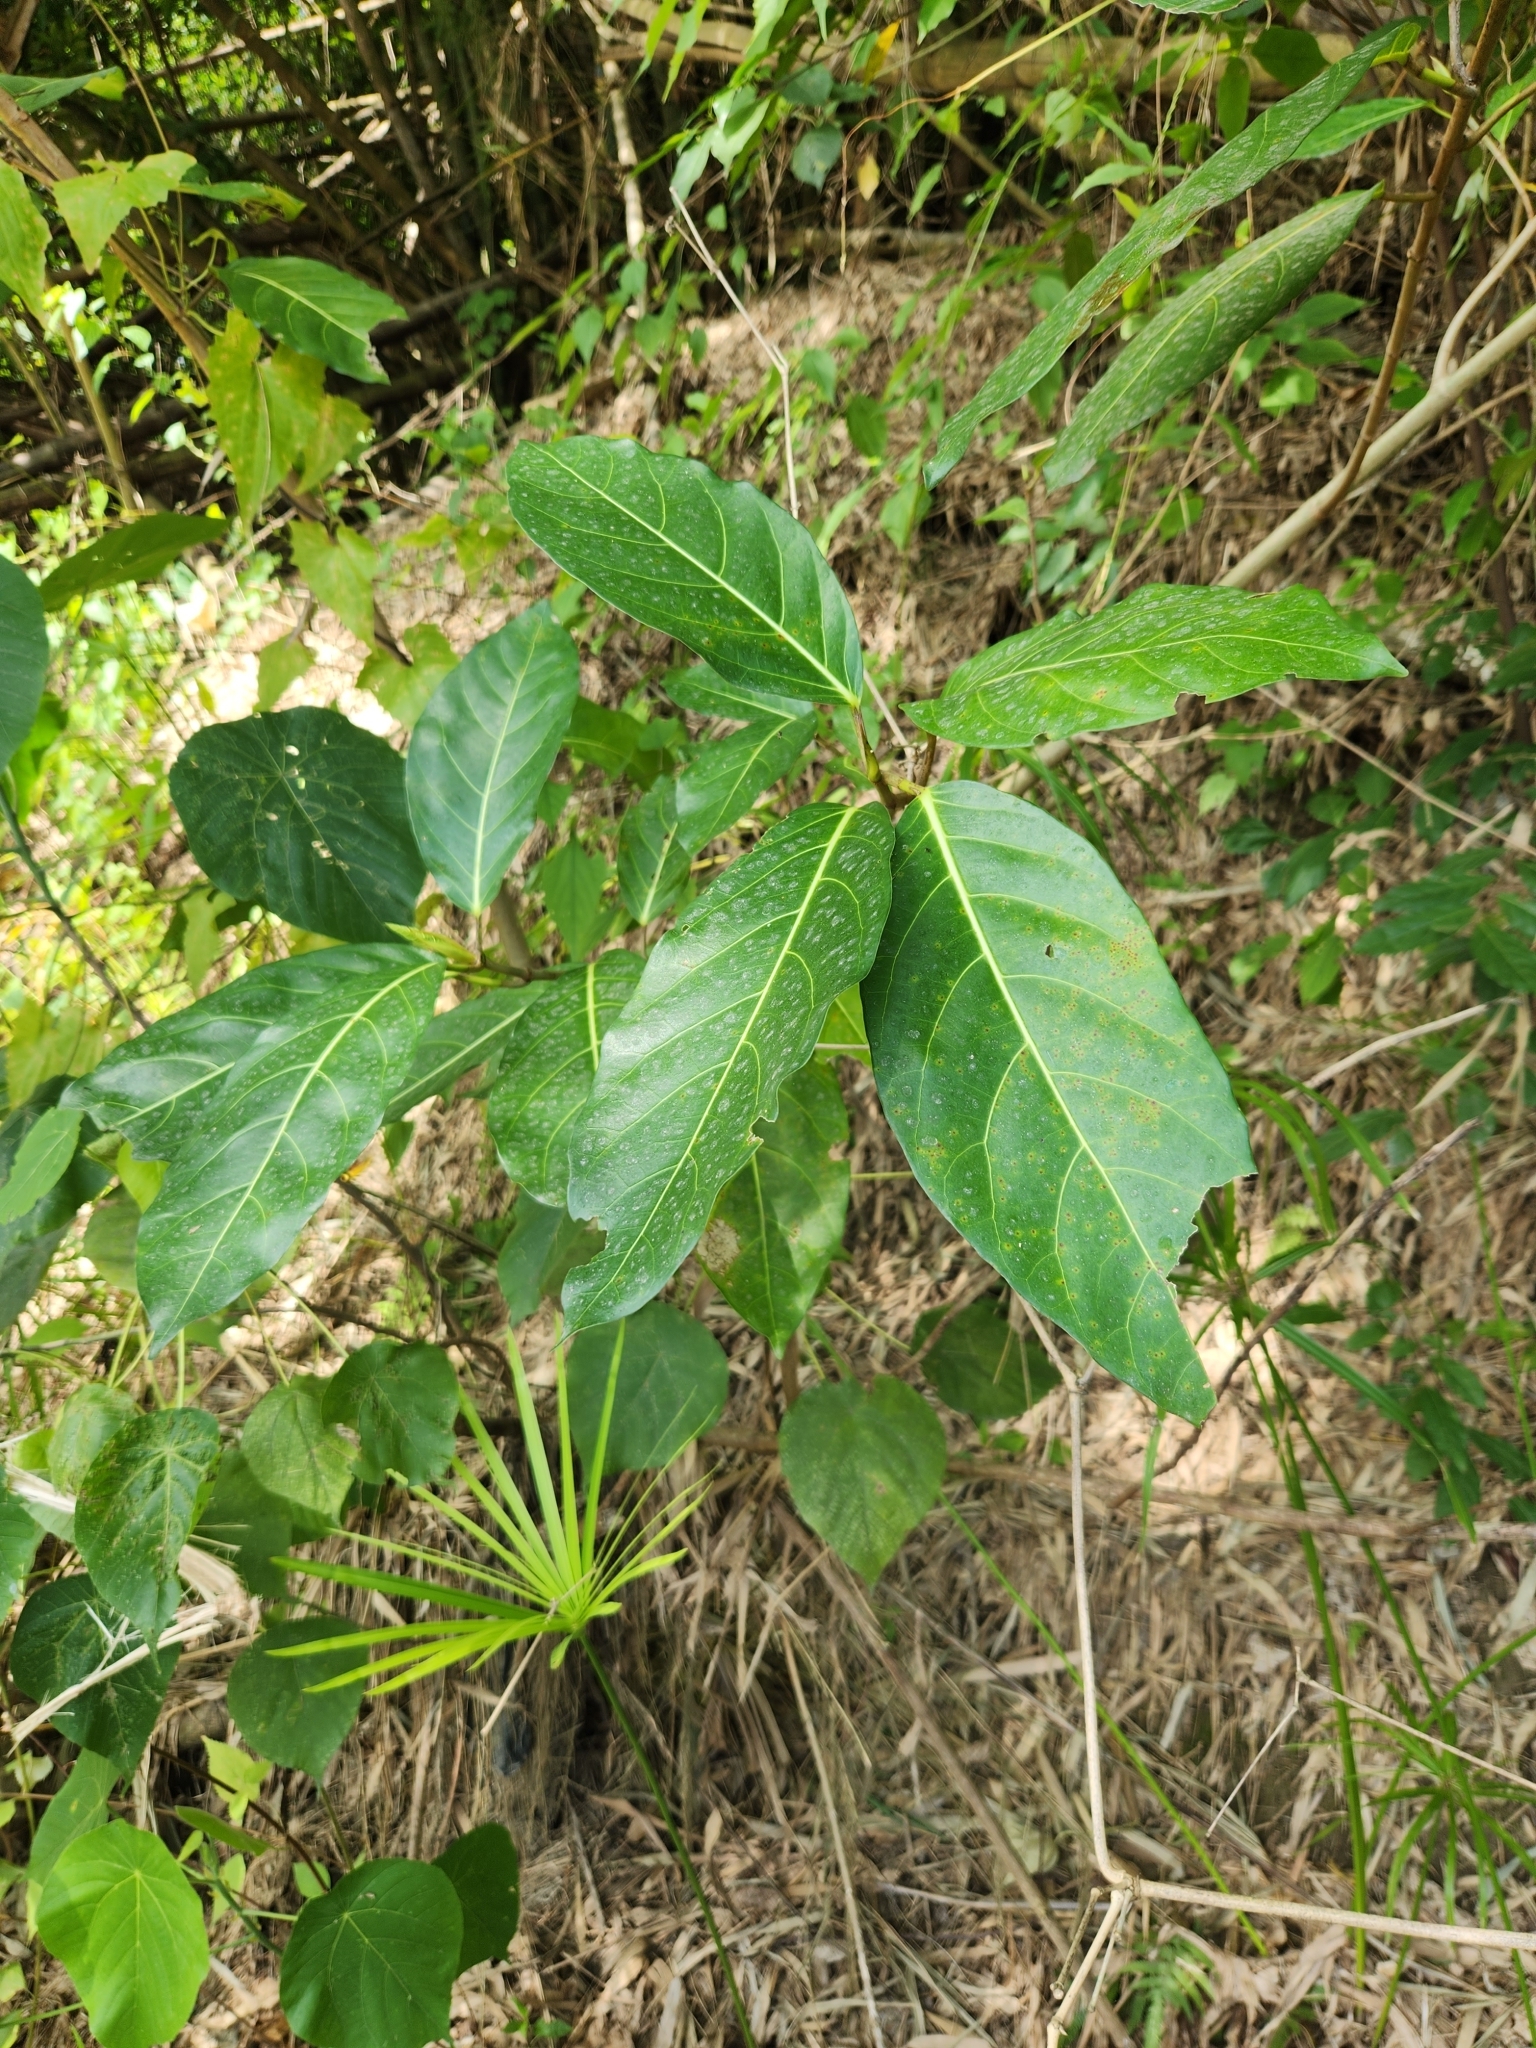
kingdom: Plantae
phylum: Tracheophyta
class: Magnoliopsida
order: Rosales
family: Moraceae
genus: Ficus
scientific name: Ficus septica
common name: Septic fig
